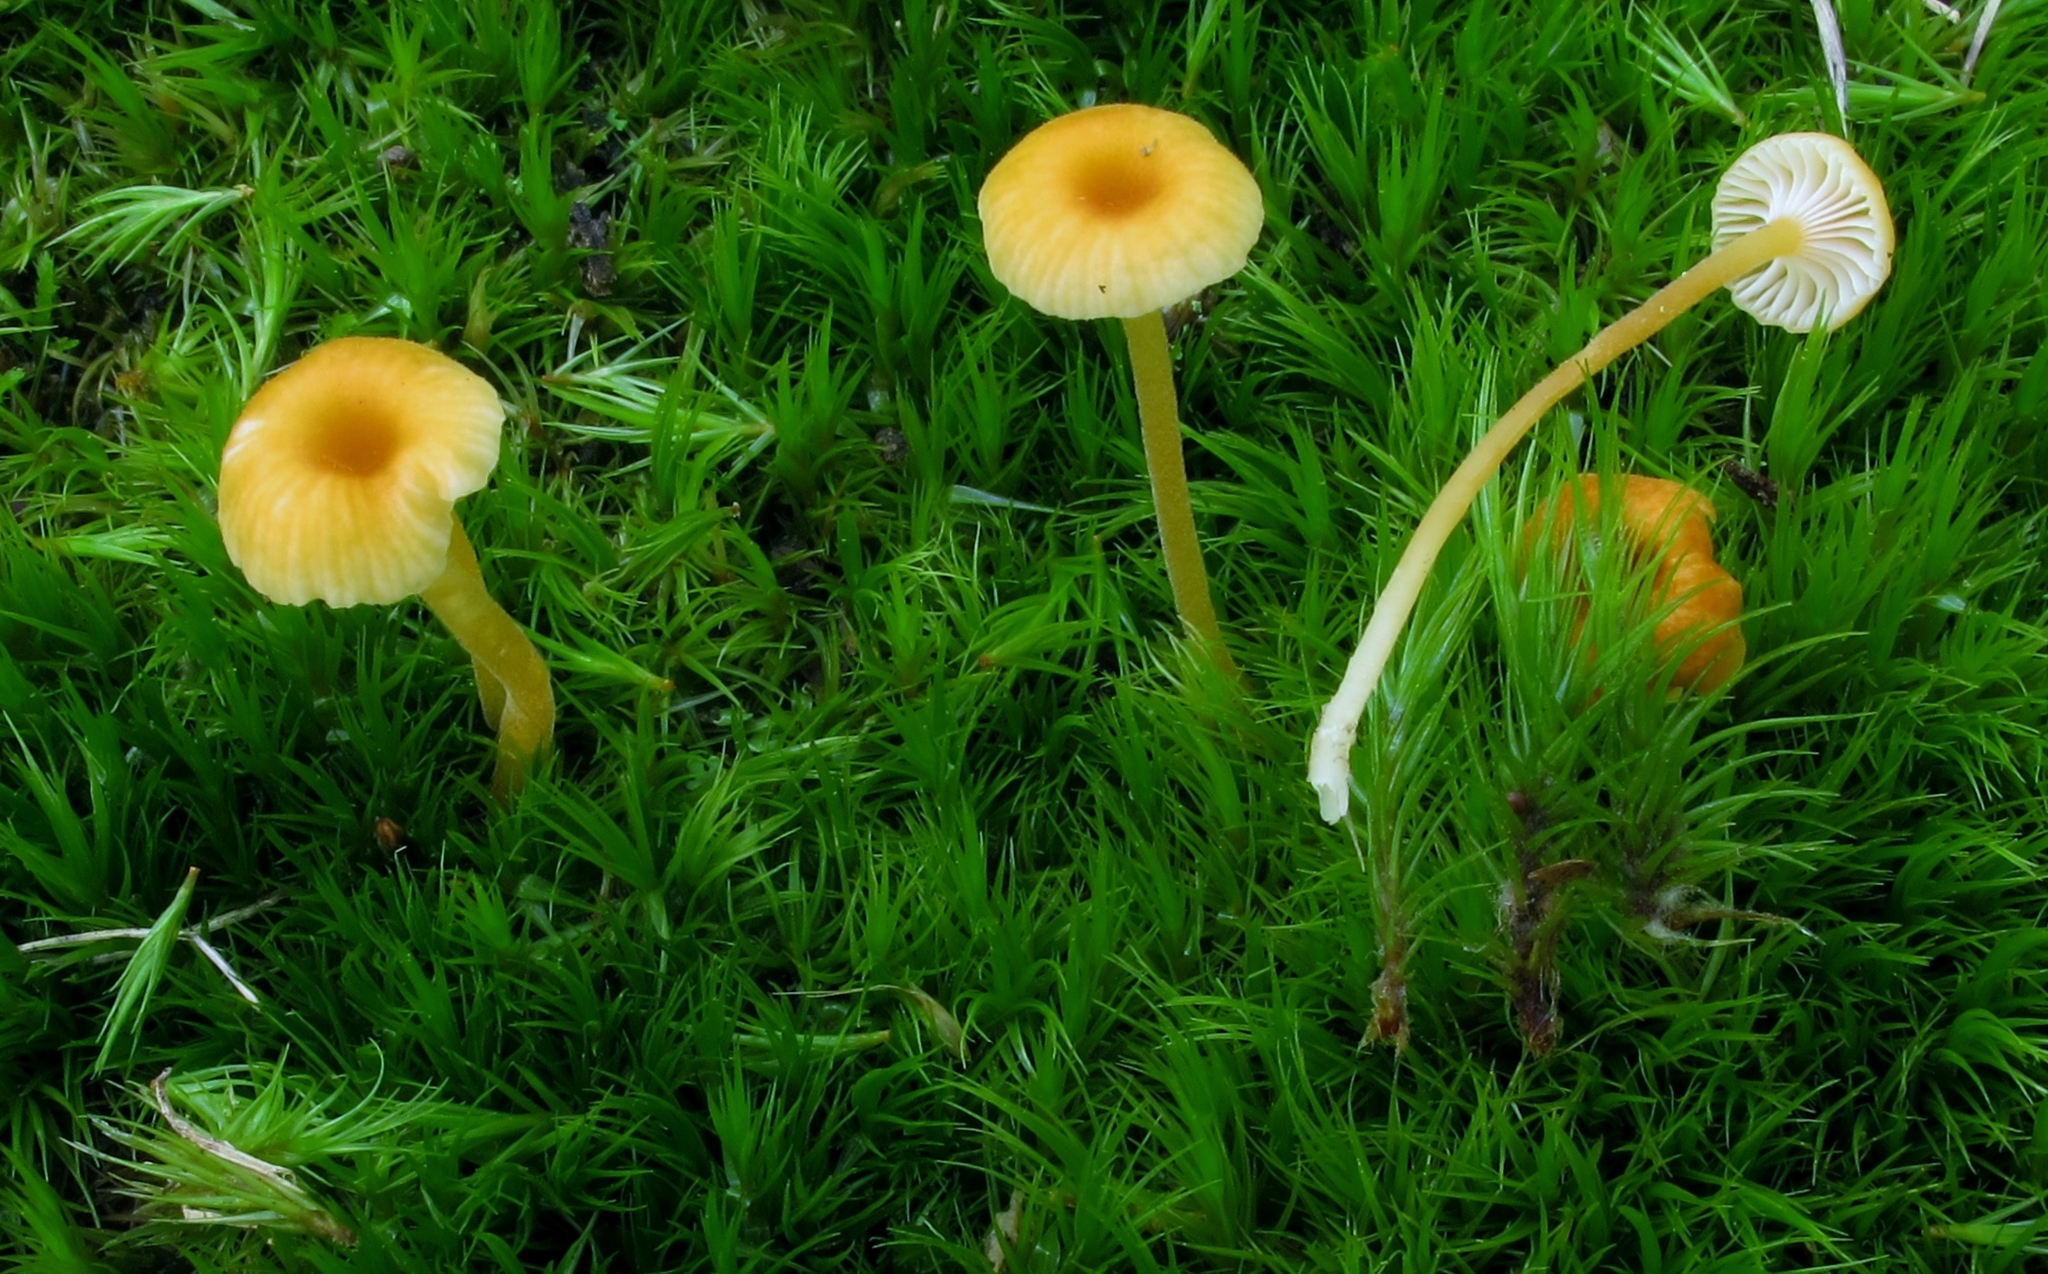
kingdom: Fungi
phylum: Basidiomycota
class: Agaricomycetes
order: Hymenochaetales
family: Rickenellaceae
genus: Rickenella
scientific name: Rickenella fibula
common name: Orange mosscap
